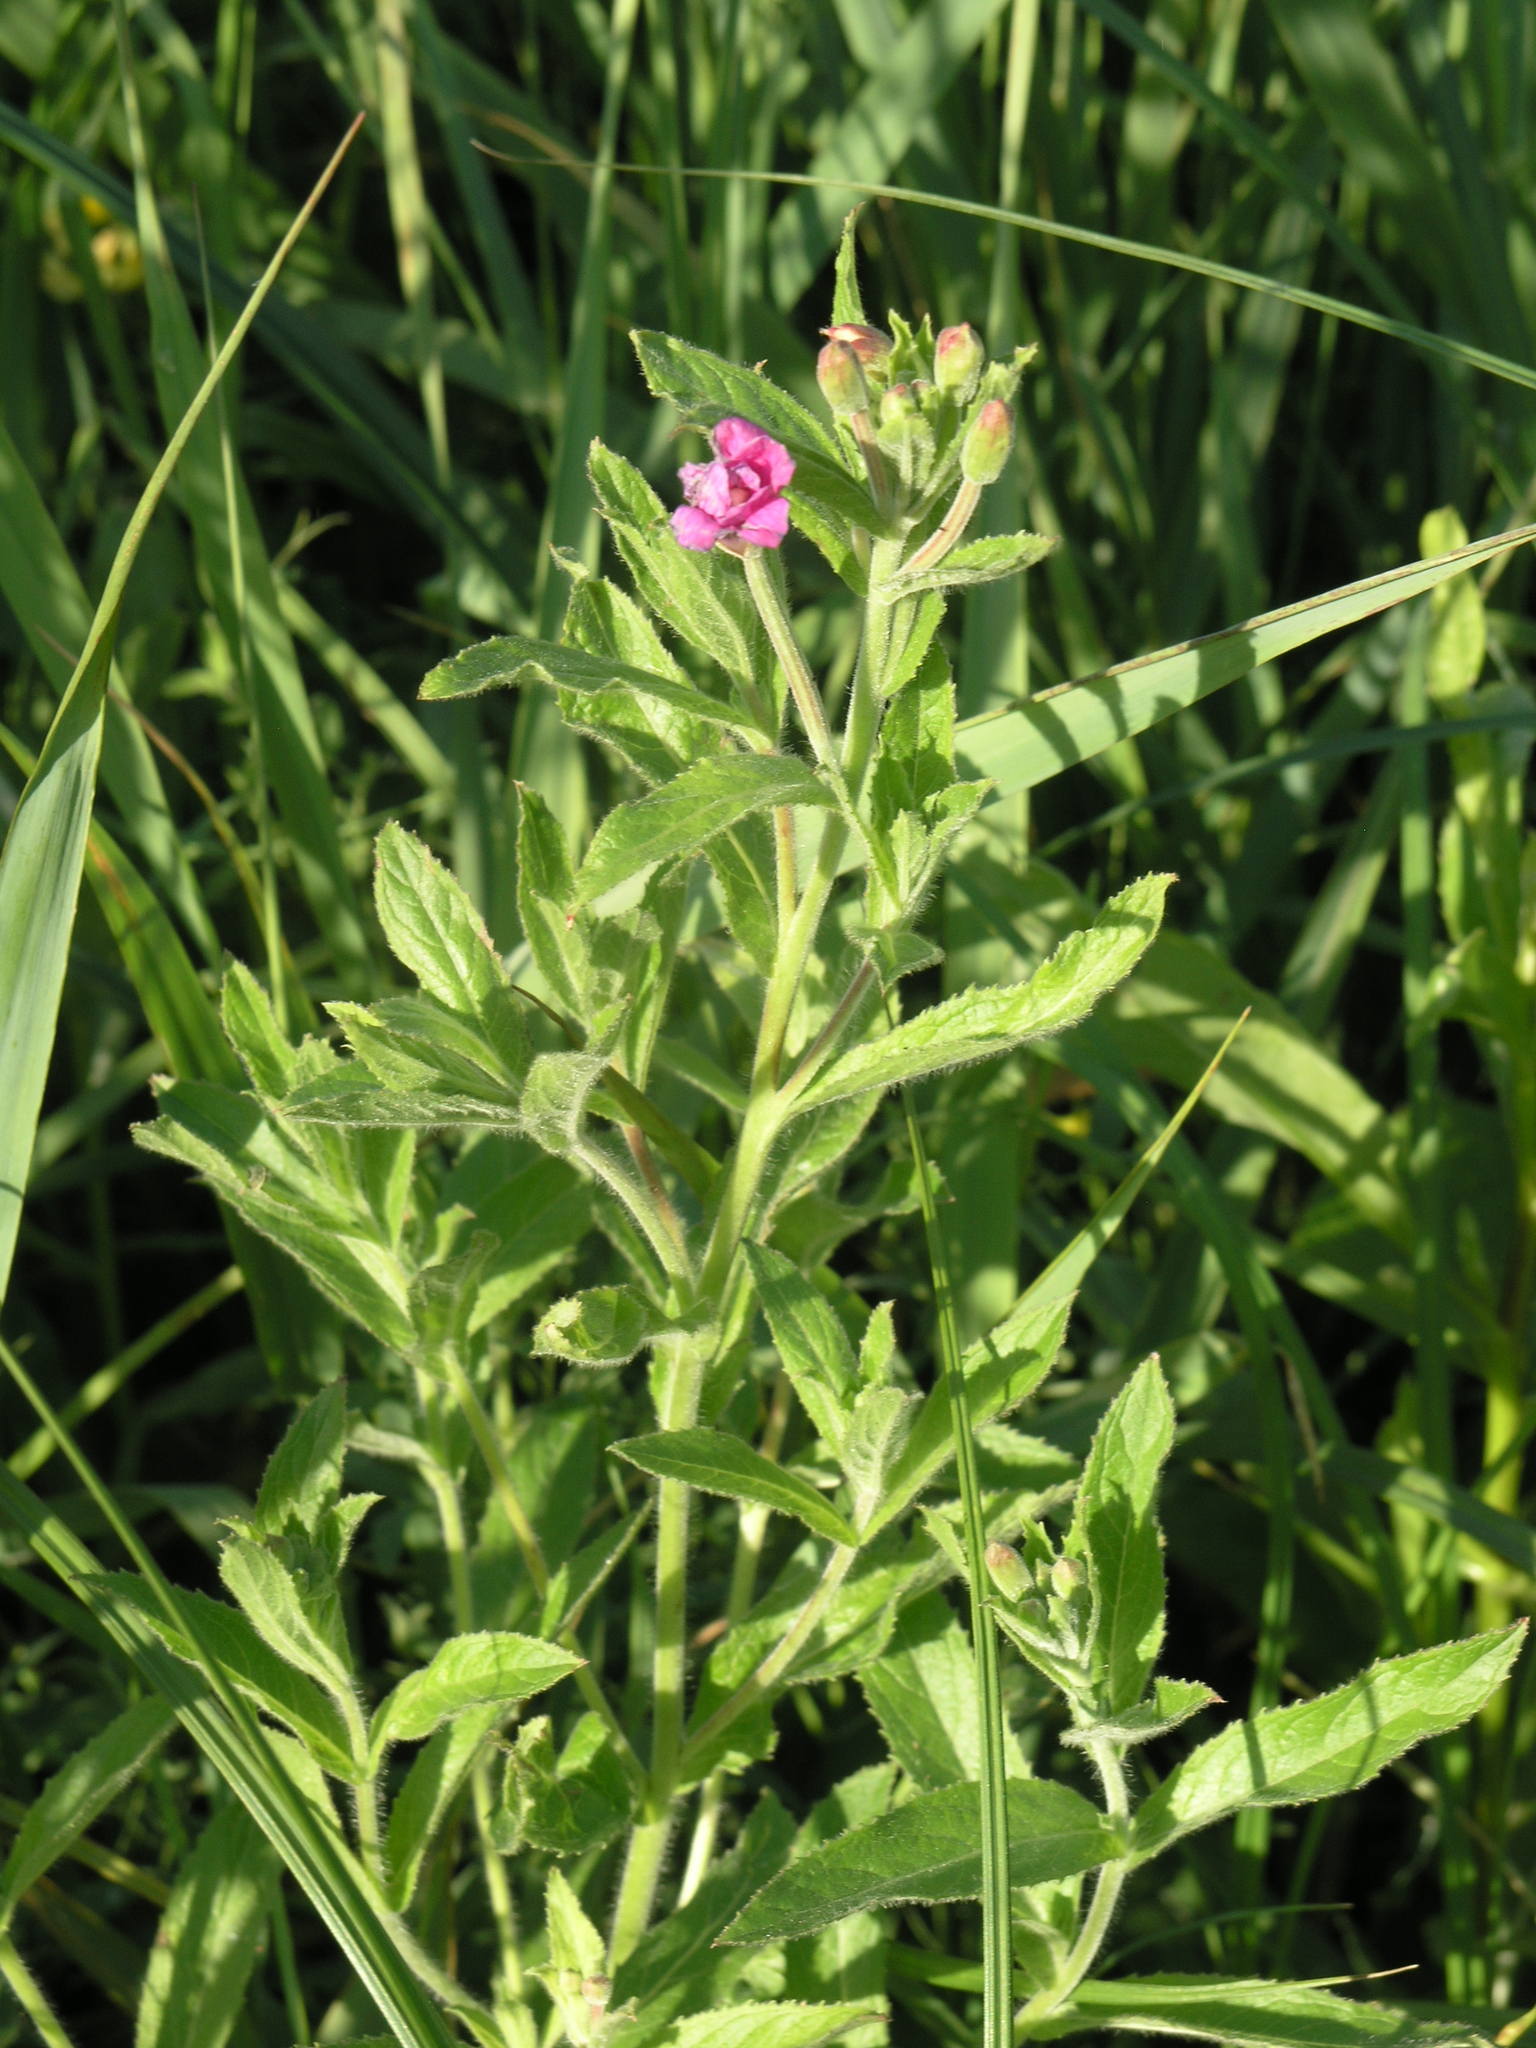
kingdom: Plantae
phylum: Tracheophyta
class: Magnoliopsida
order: Myrtales
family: Onagraceae
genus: Epilobium
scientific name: Epilobium hirsutum
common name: Great willowherb
